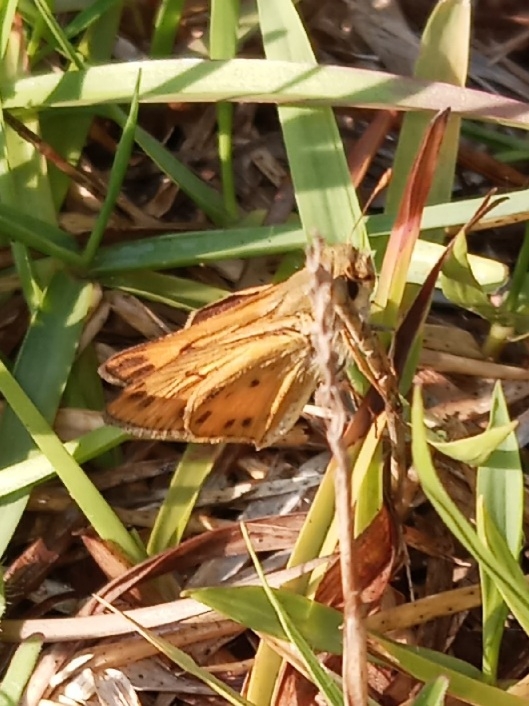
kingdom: Animalia
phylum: Arthropoda
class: Insecta
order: Lepidoptera
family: Hesperiidae
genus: Hylephila
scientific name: Hylephila phyleus
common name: Fiery skipper
